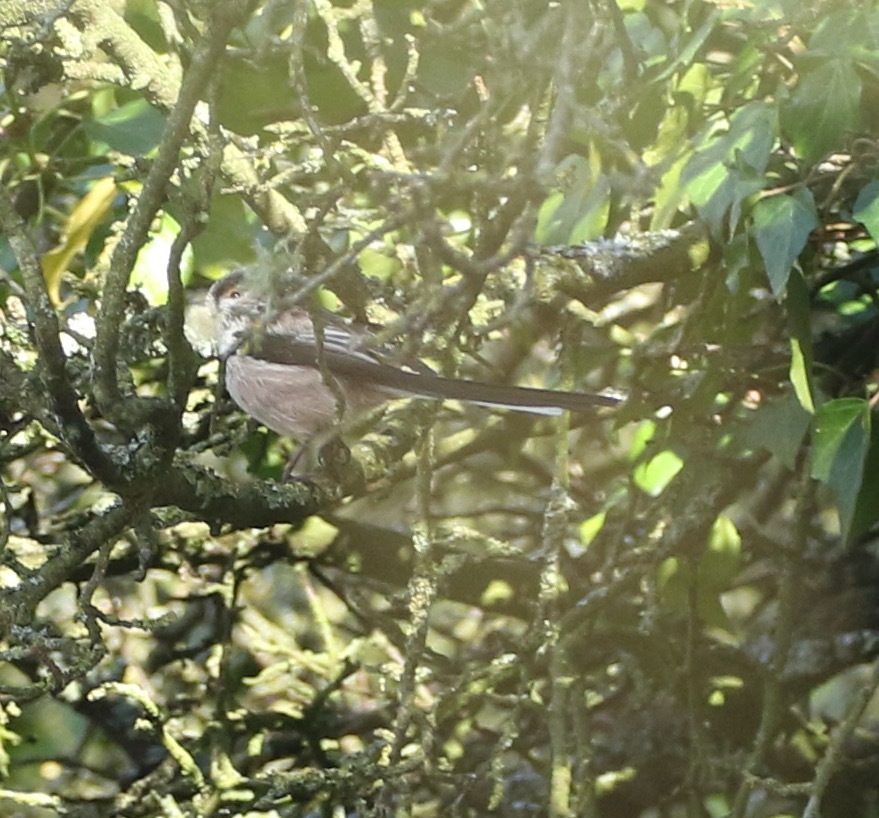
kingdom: Animalia
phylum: Chordata
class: Aves
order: Passeriformes
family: Aegithalidae
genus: Aegithalos
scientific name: Aegithalos caudatus
